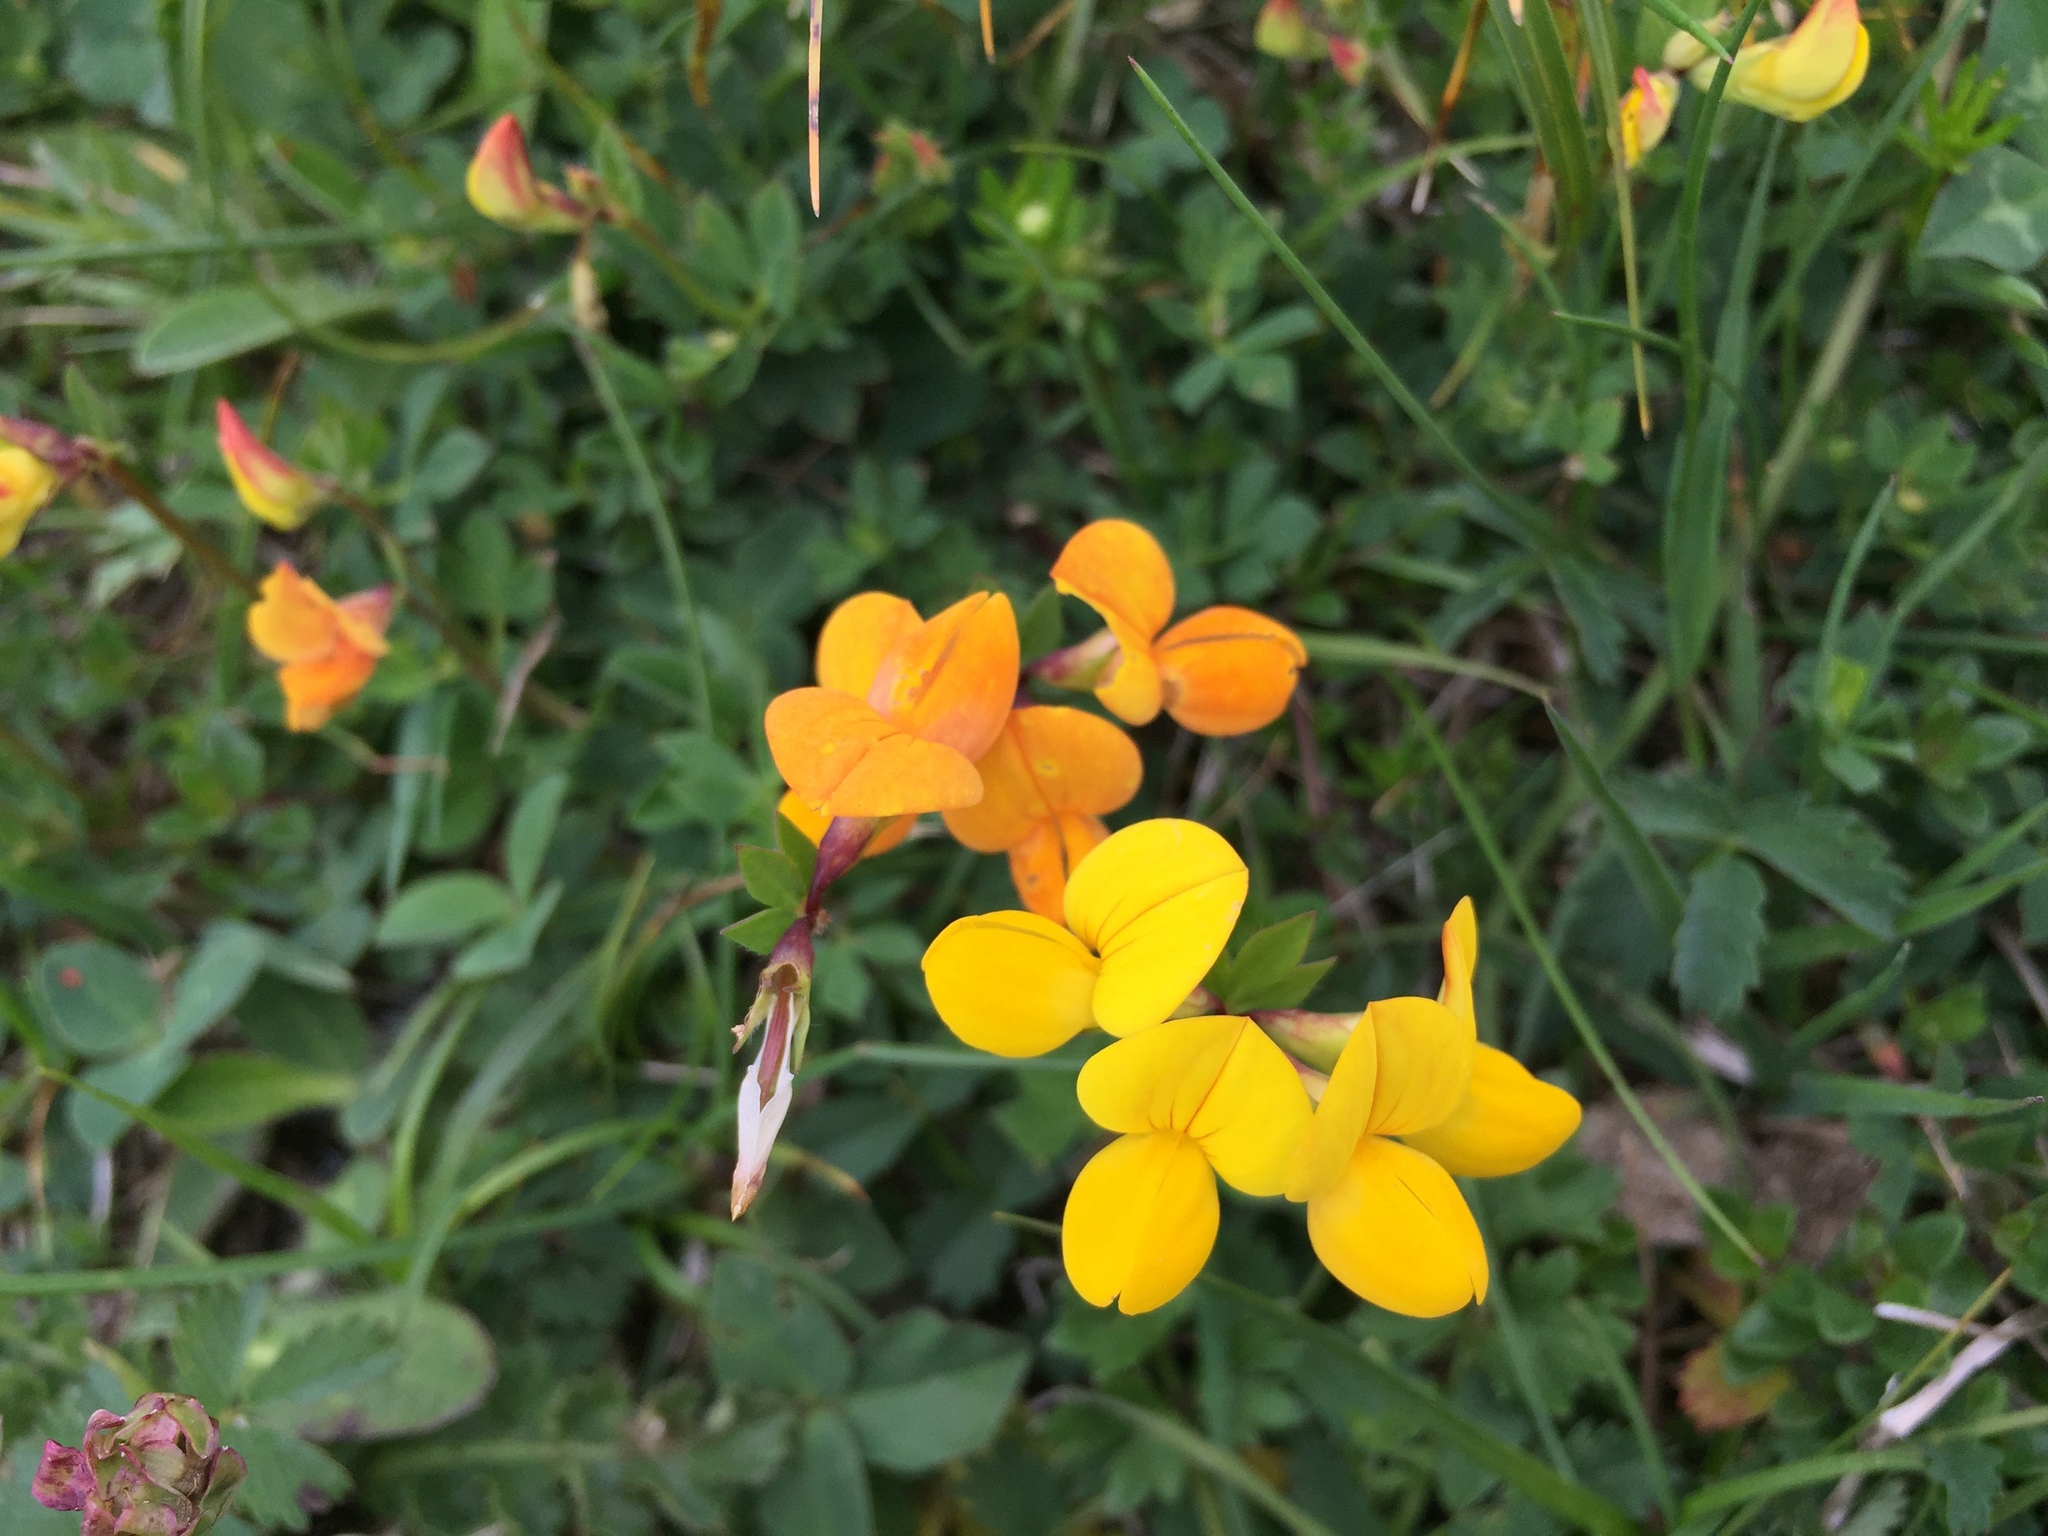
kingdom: Plantae
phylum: Tracheophyta
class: Magnoliopsida
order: Fabales
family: Fabaceae
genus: Lotus
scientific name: Lotus corniculatus
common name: Common bird's-foot-trefoil
